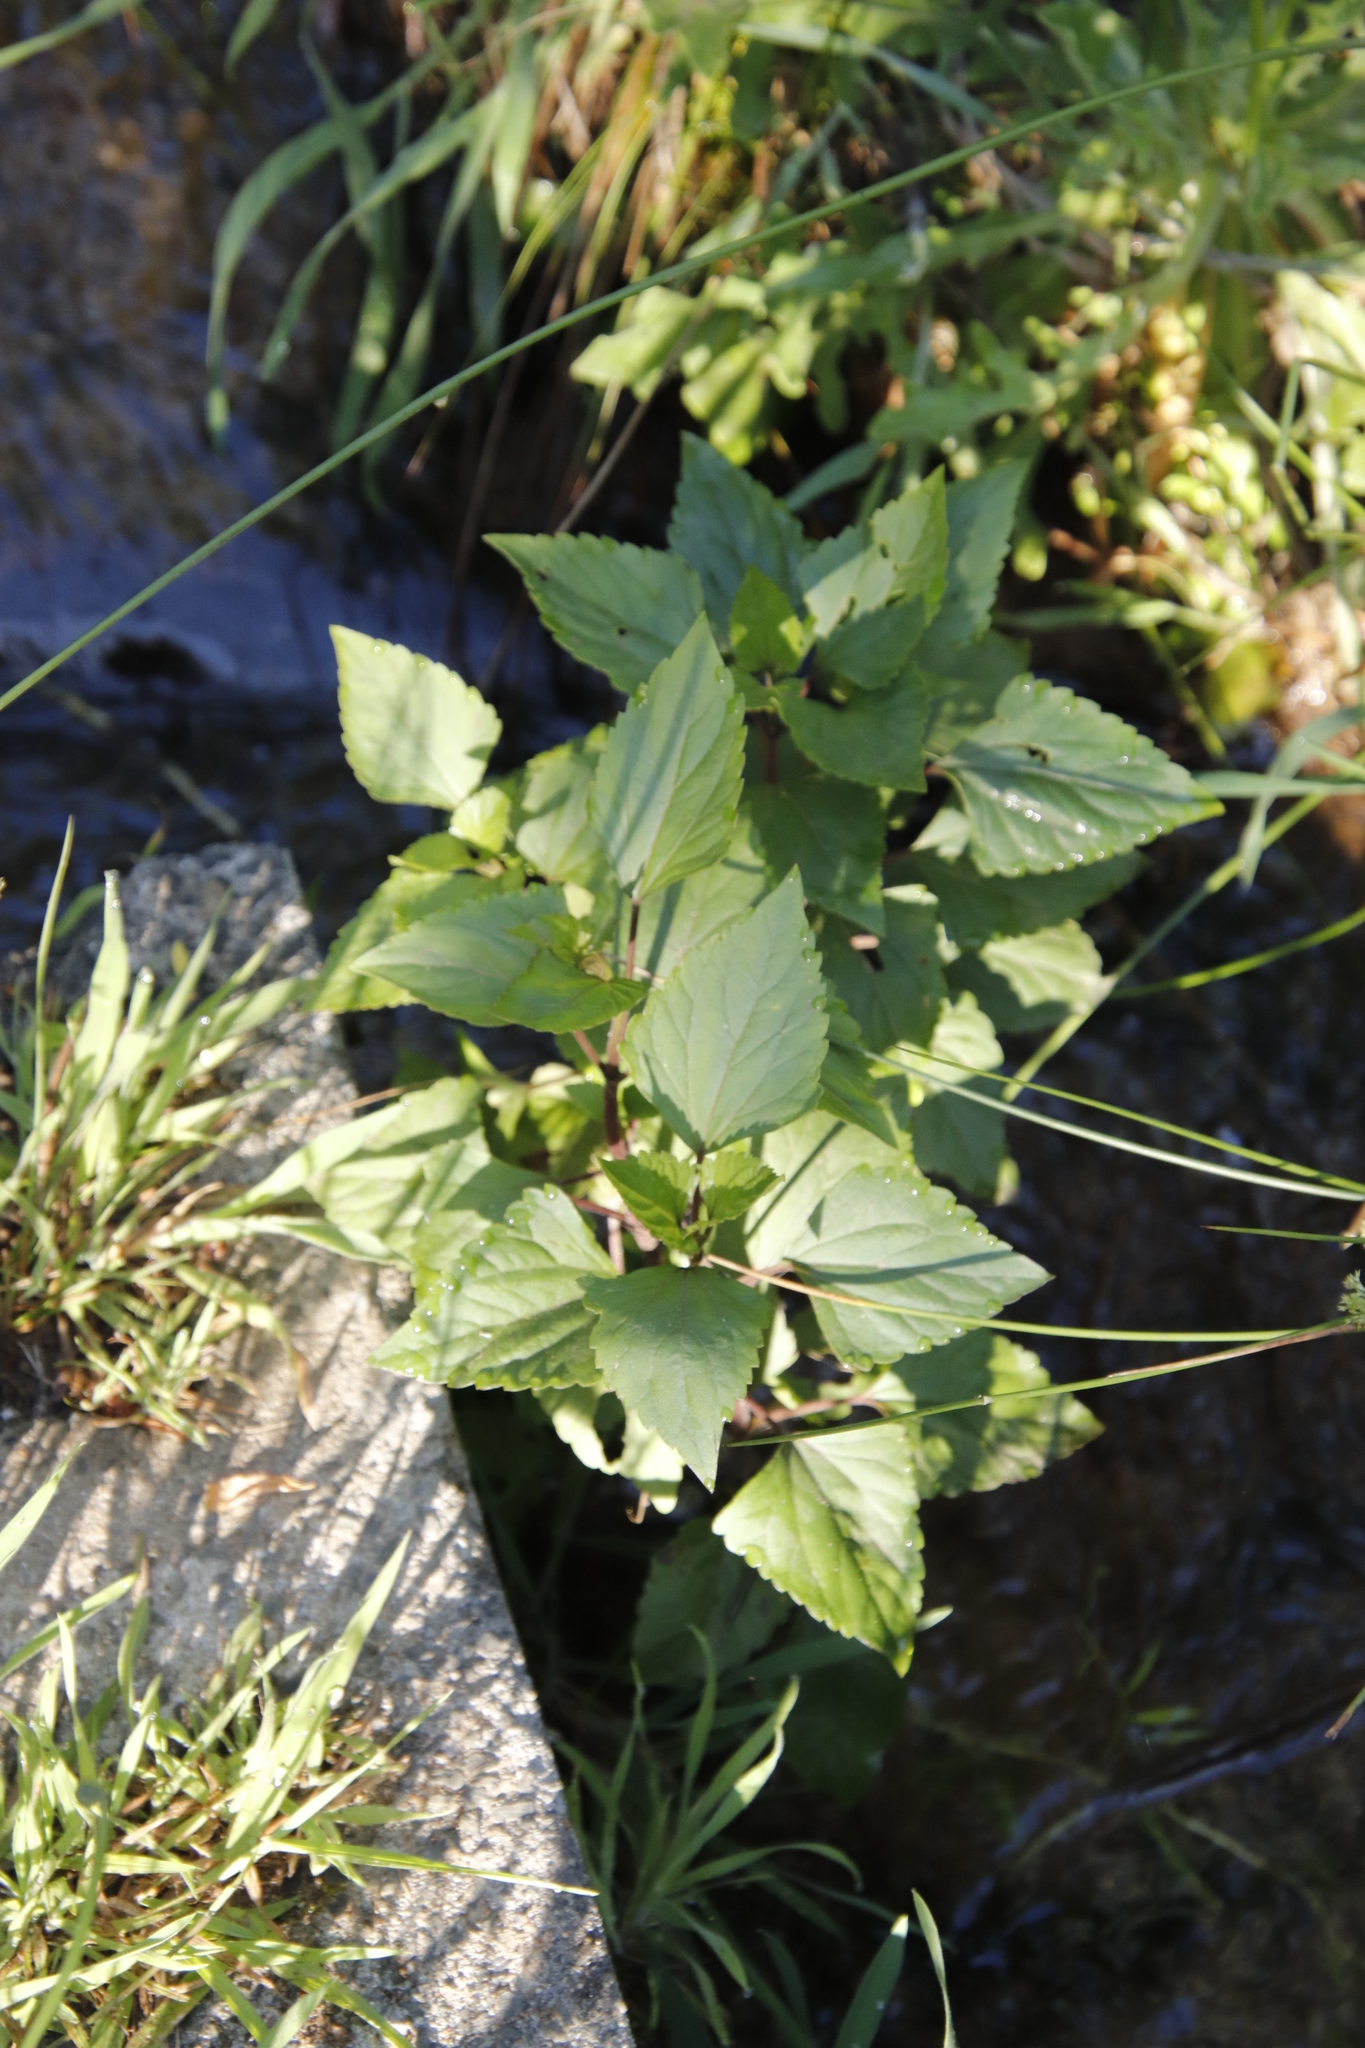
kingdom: Plantae
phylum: Tracheophyta
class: Magnoliopsida
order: Asterales
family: Asteraceae
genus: Ageratina
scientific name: Ageratina adenophora
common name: Sticky snakeroot
